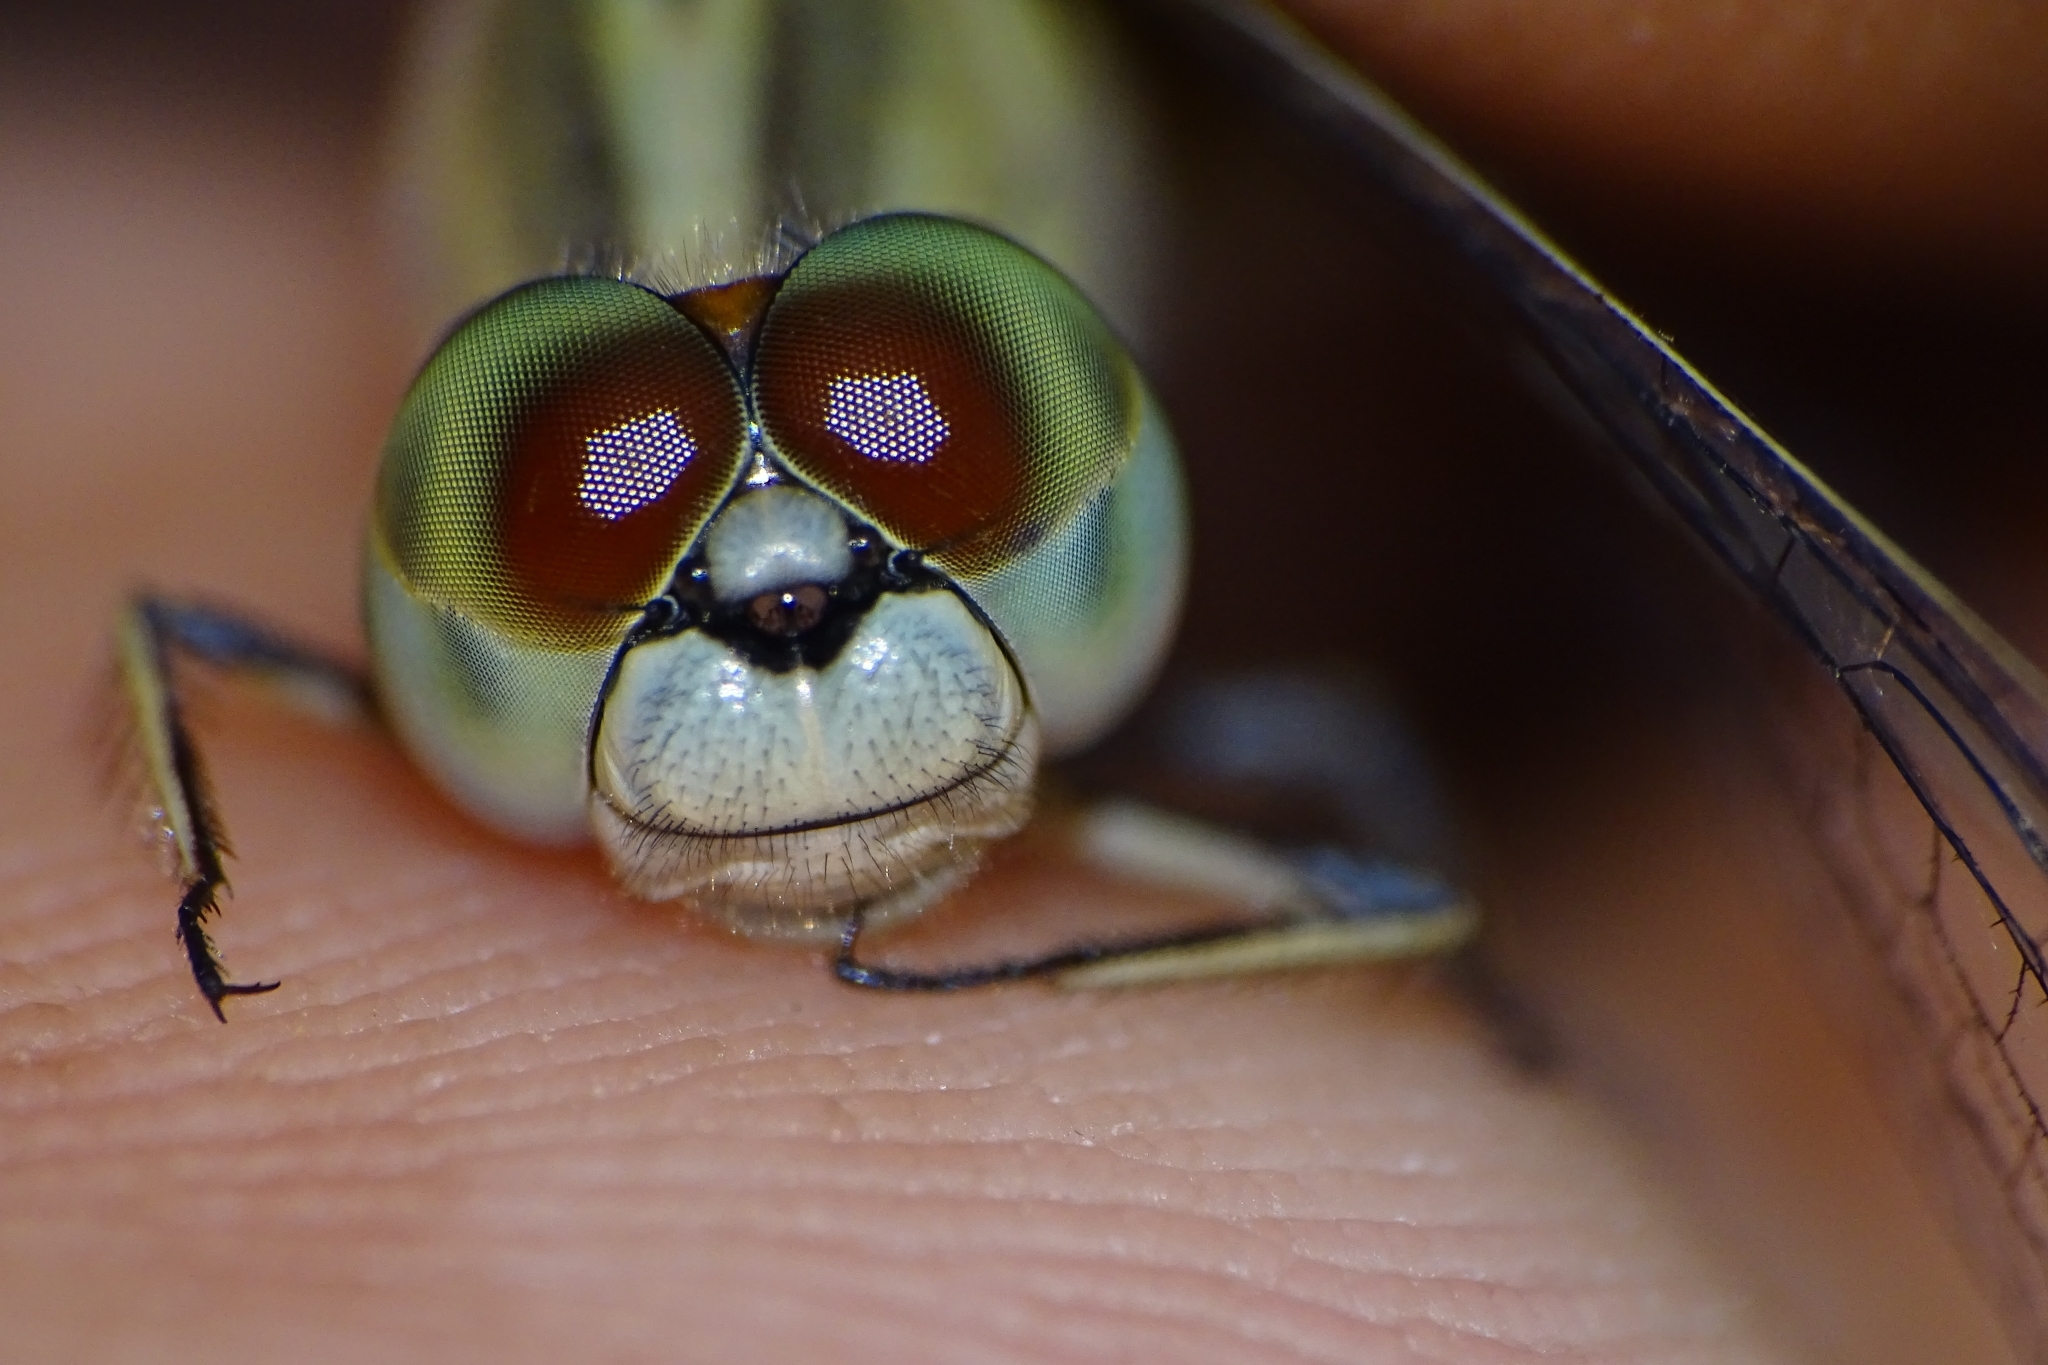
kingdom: Animalia
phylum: Arthropoda
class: Insecta
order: Odonata
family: Libellulidae
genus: Diplacodes
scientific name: Diplacodes trivialis
